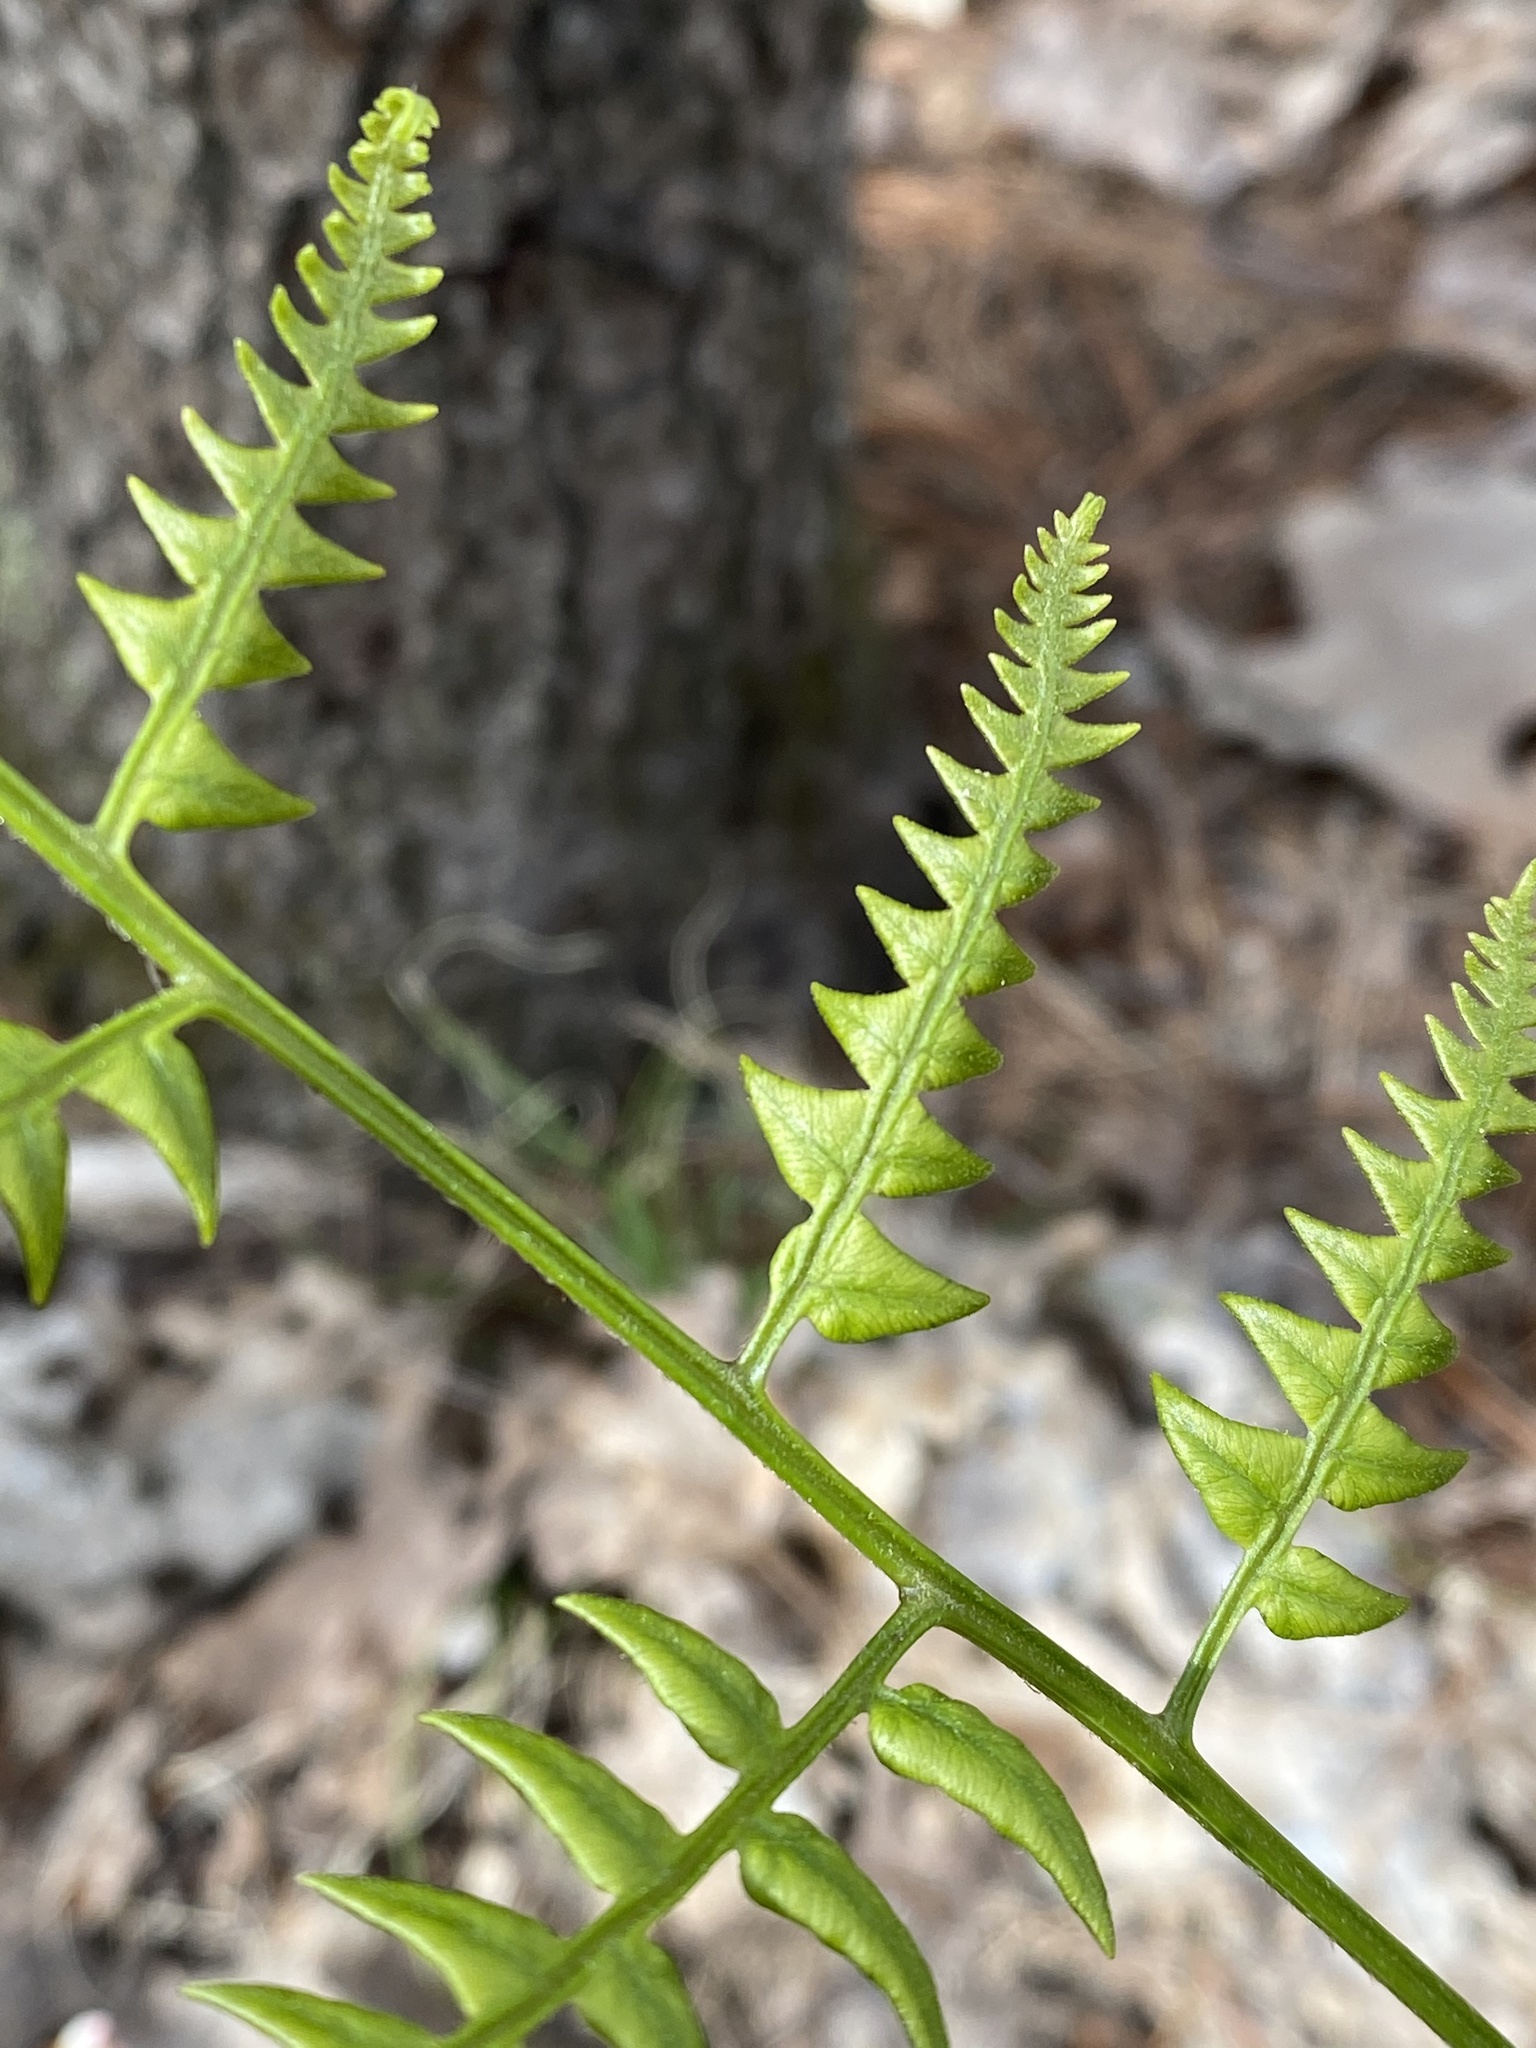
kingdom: Plantae
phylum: Tracheophyta
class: Polypodiopsida
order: Polypodiales
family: Dennstaedtiaceae
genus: Pteridium
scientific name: Pteridium aquilinum
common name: Bracken
